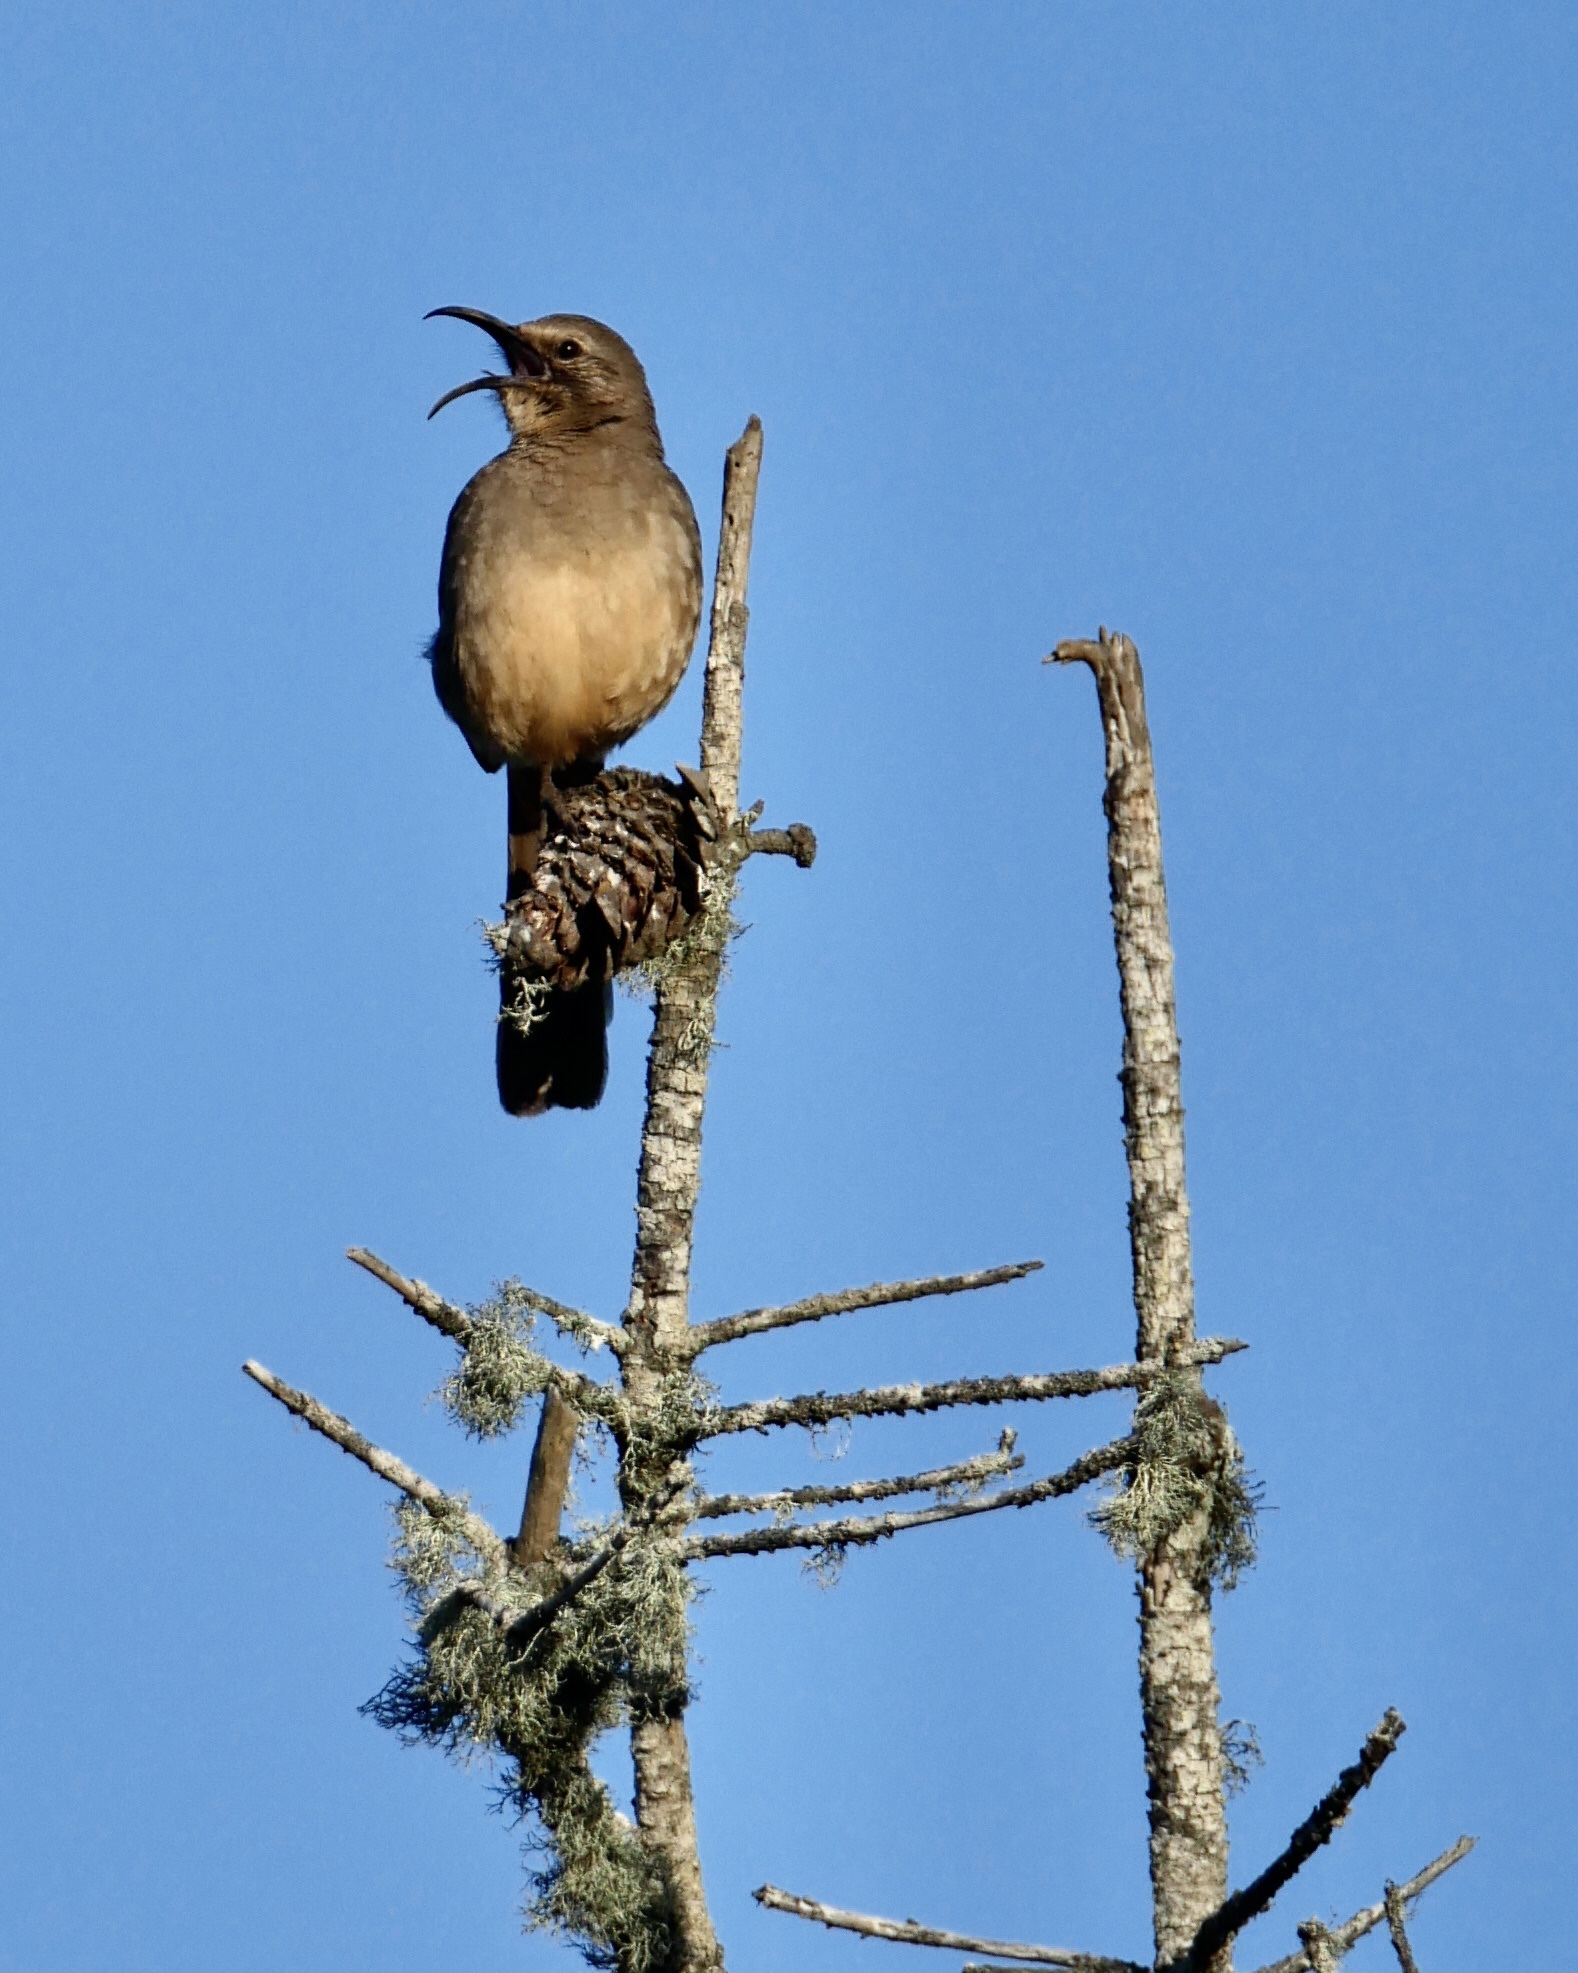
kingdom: Animalia
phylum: Chordata
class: Aves
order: Passeriformes
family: Mimidae
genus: Toxostoma
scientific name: Toxostoma redivivum
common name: California thrasher
